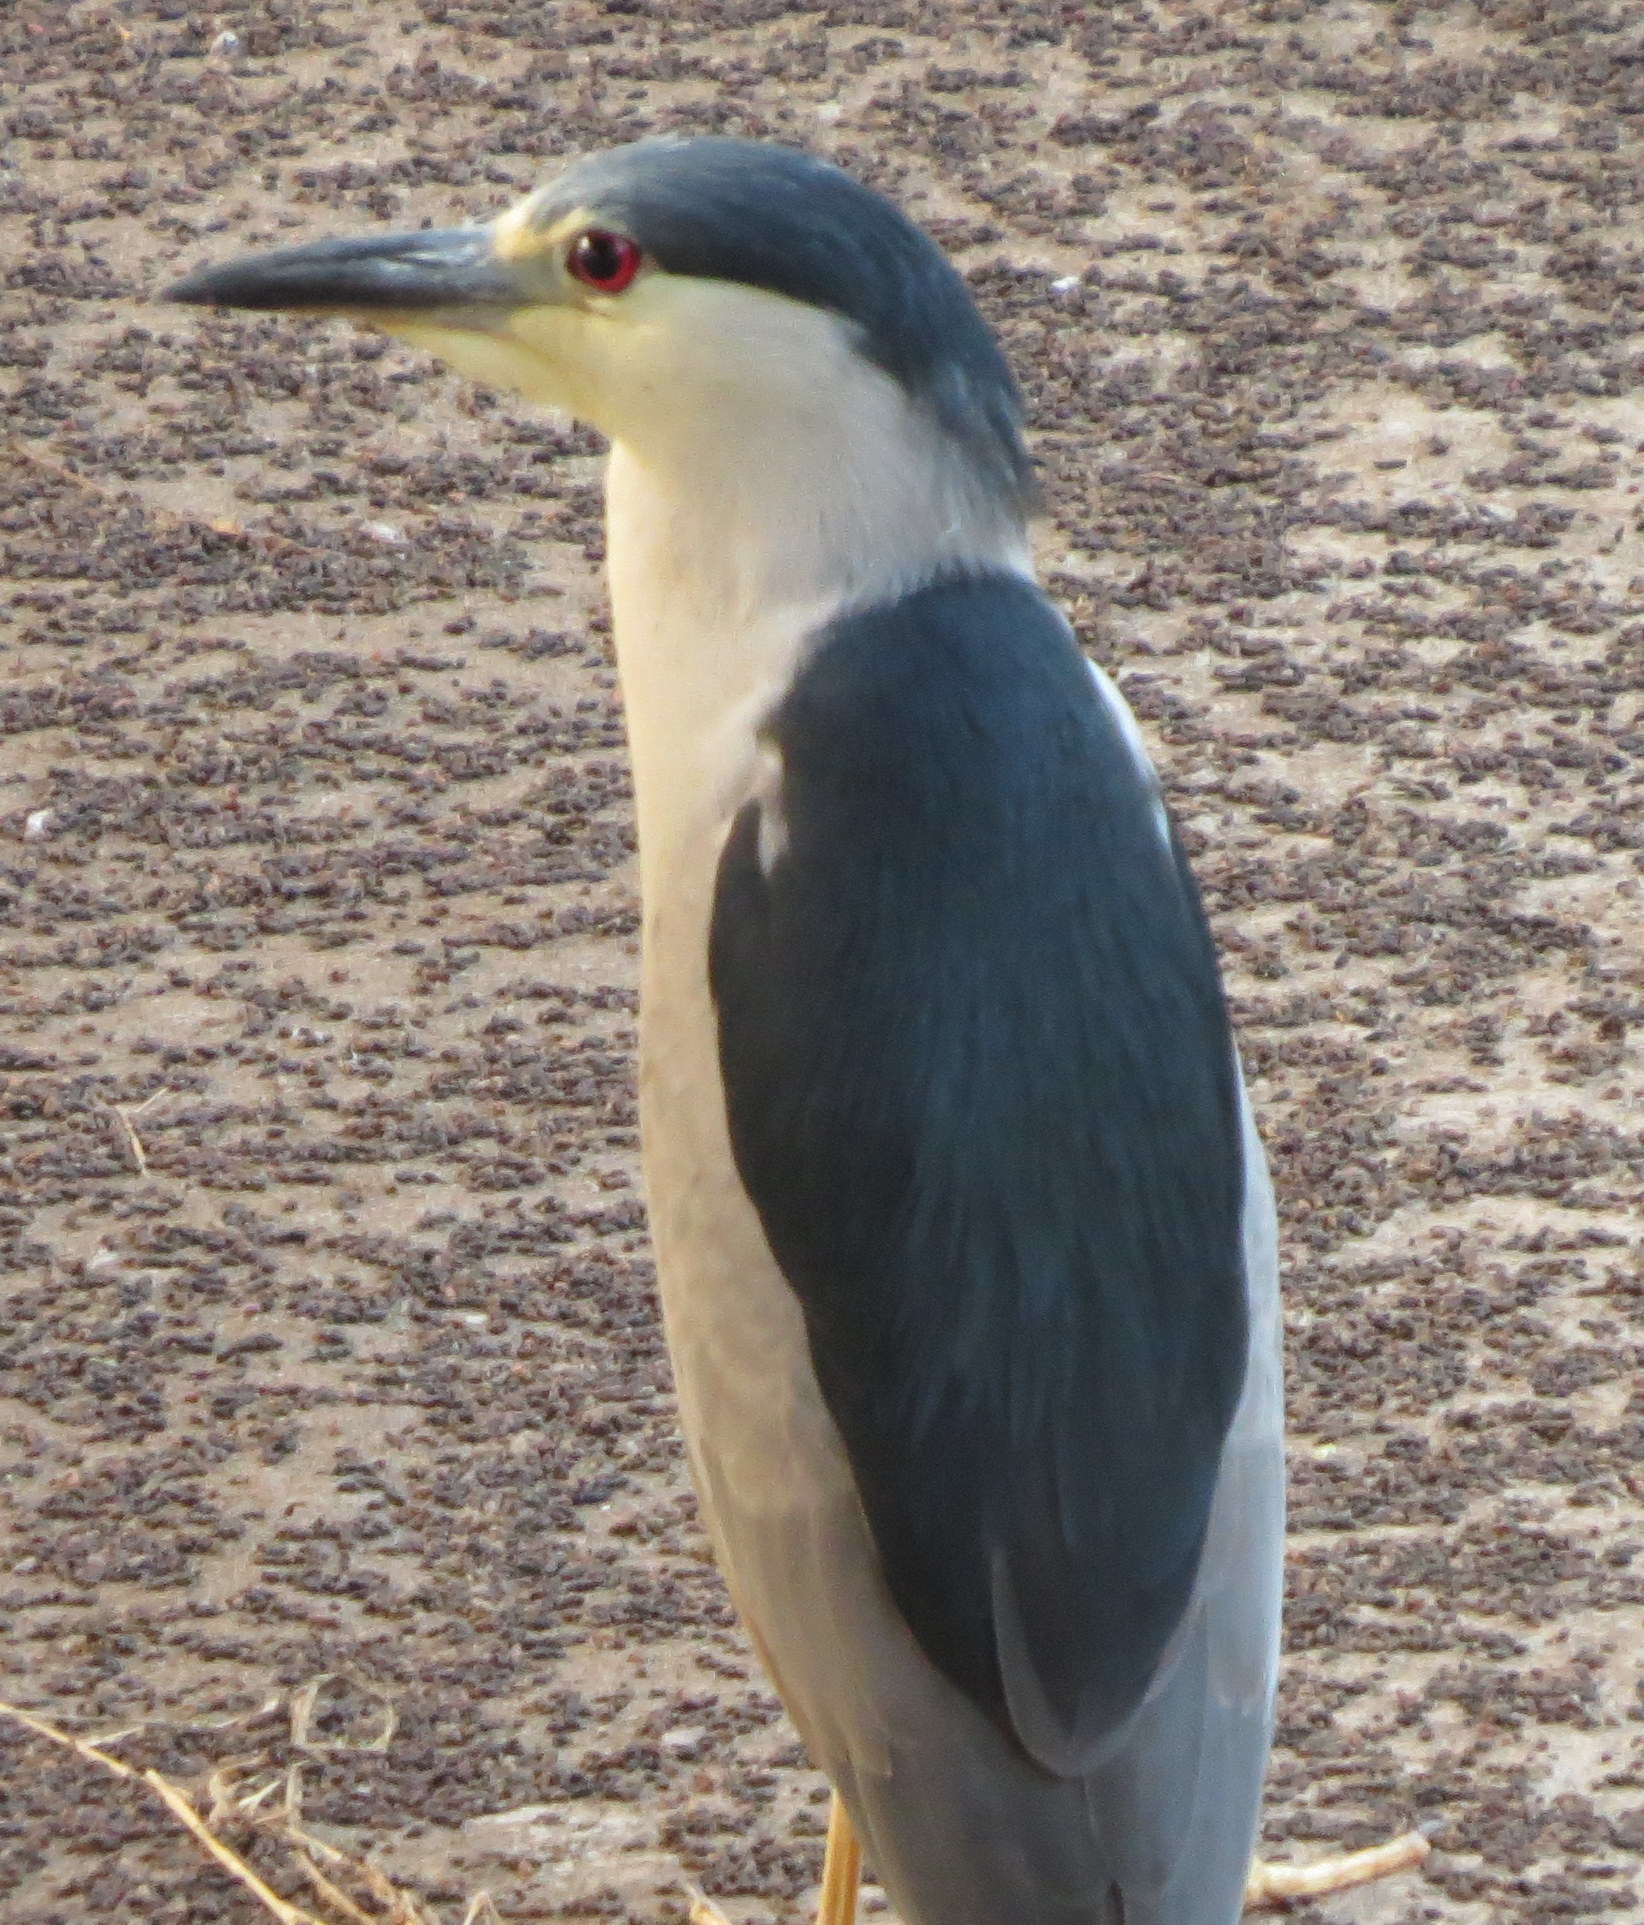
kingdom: Animalia
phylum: Chordata
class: Aves
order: Pelecaniformes
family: Ardeidae
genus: Nycticorax
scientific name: Nycticorax nycticorax
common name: Black-crowned night heron
